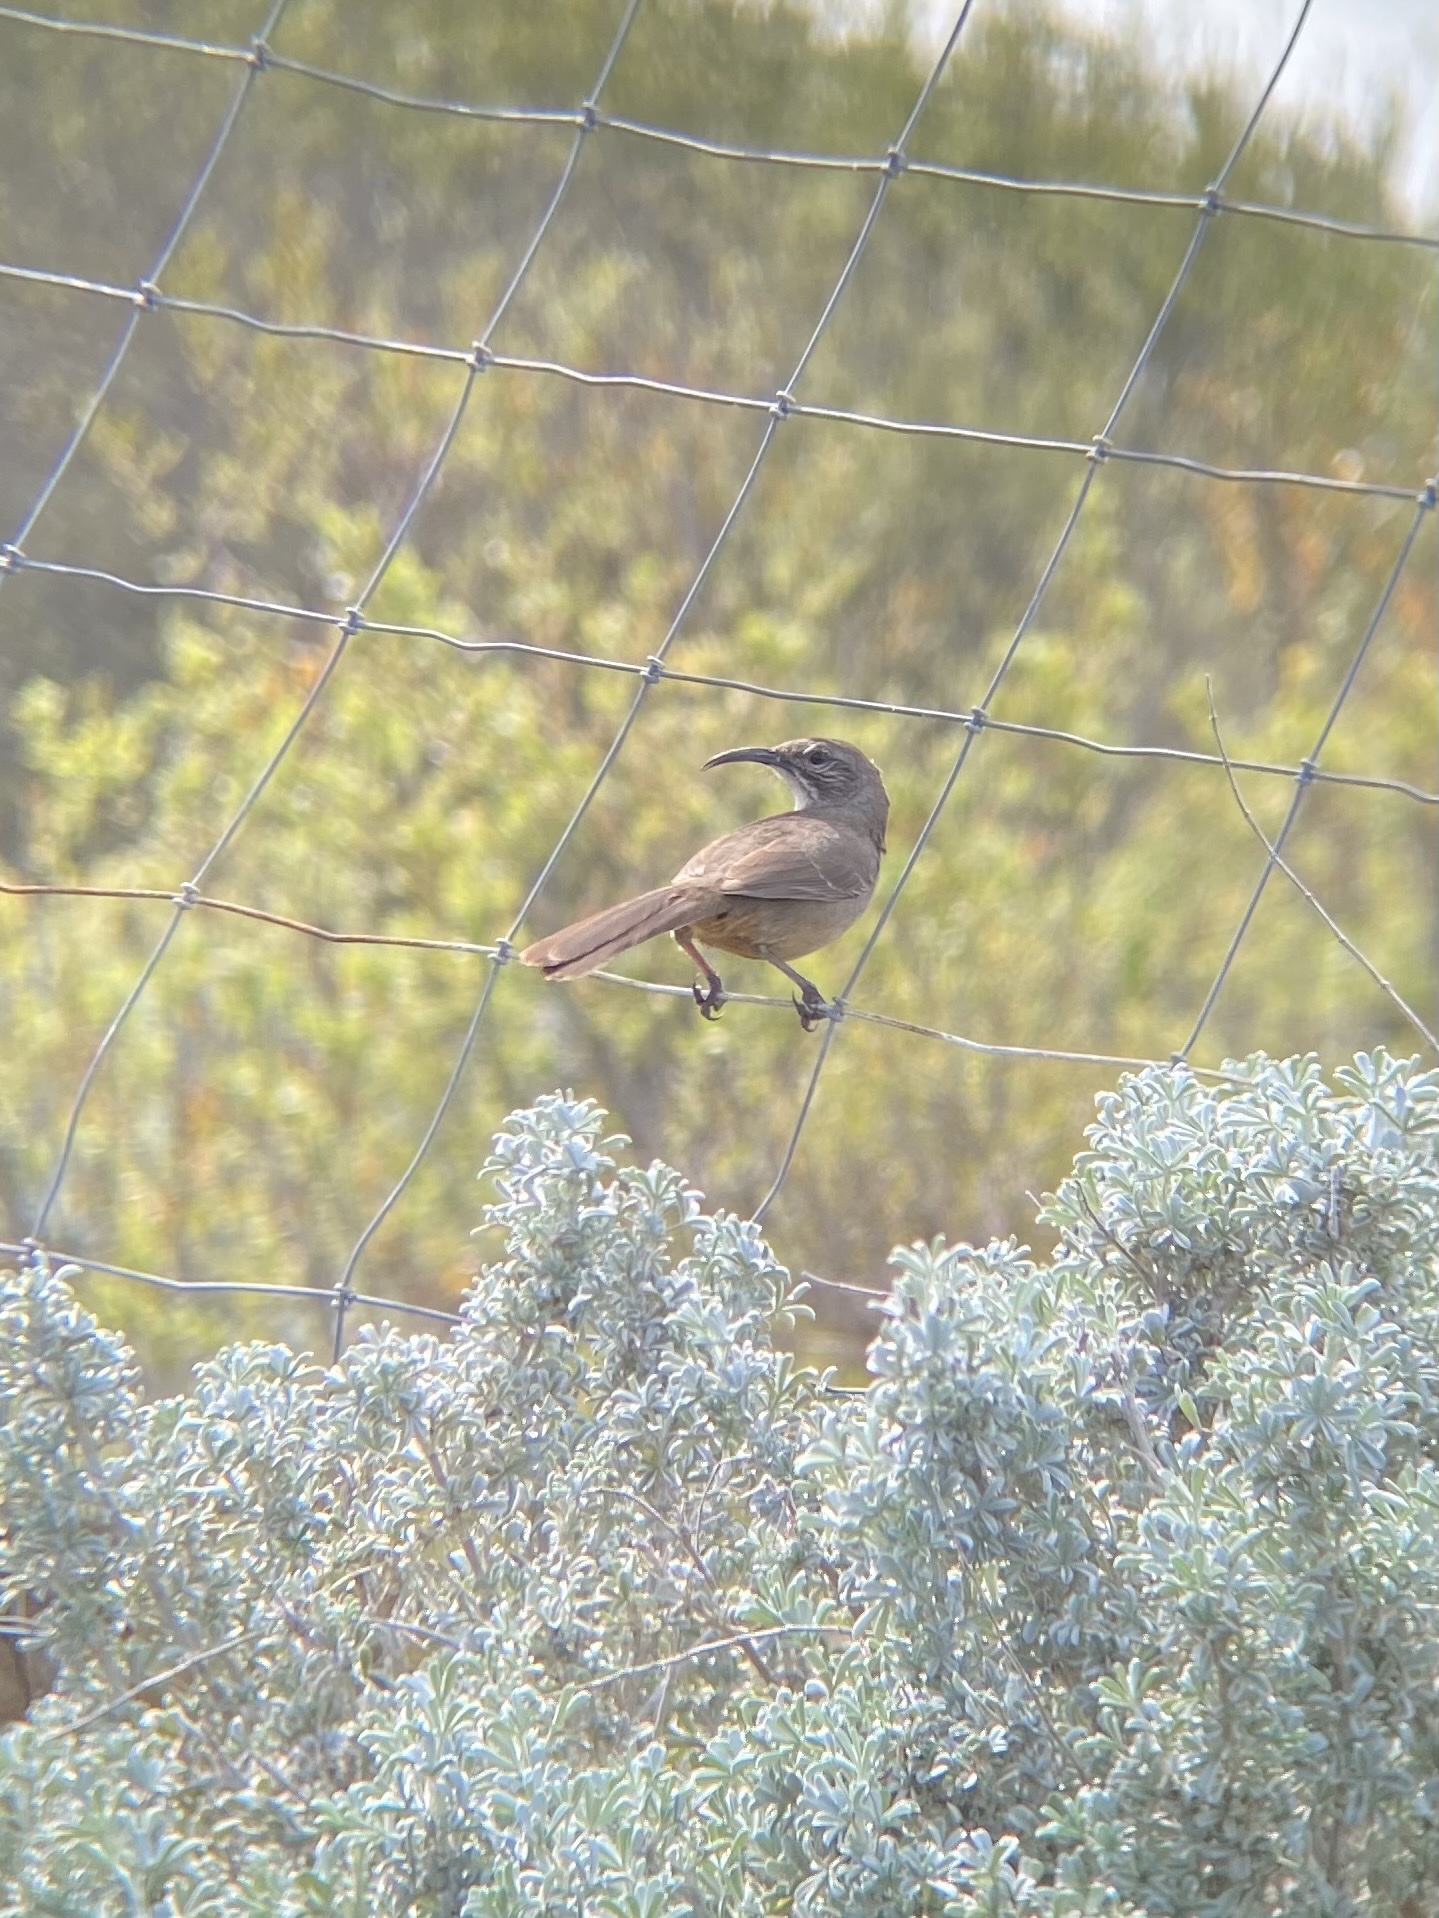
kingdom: Animalia
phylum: Chordata
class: Aves
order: Passeriformes
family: Mimidae
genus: Toxostoma
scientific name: Toxostoma redivivum
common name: California thrasher
